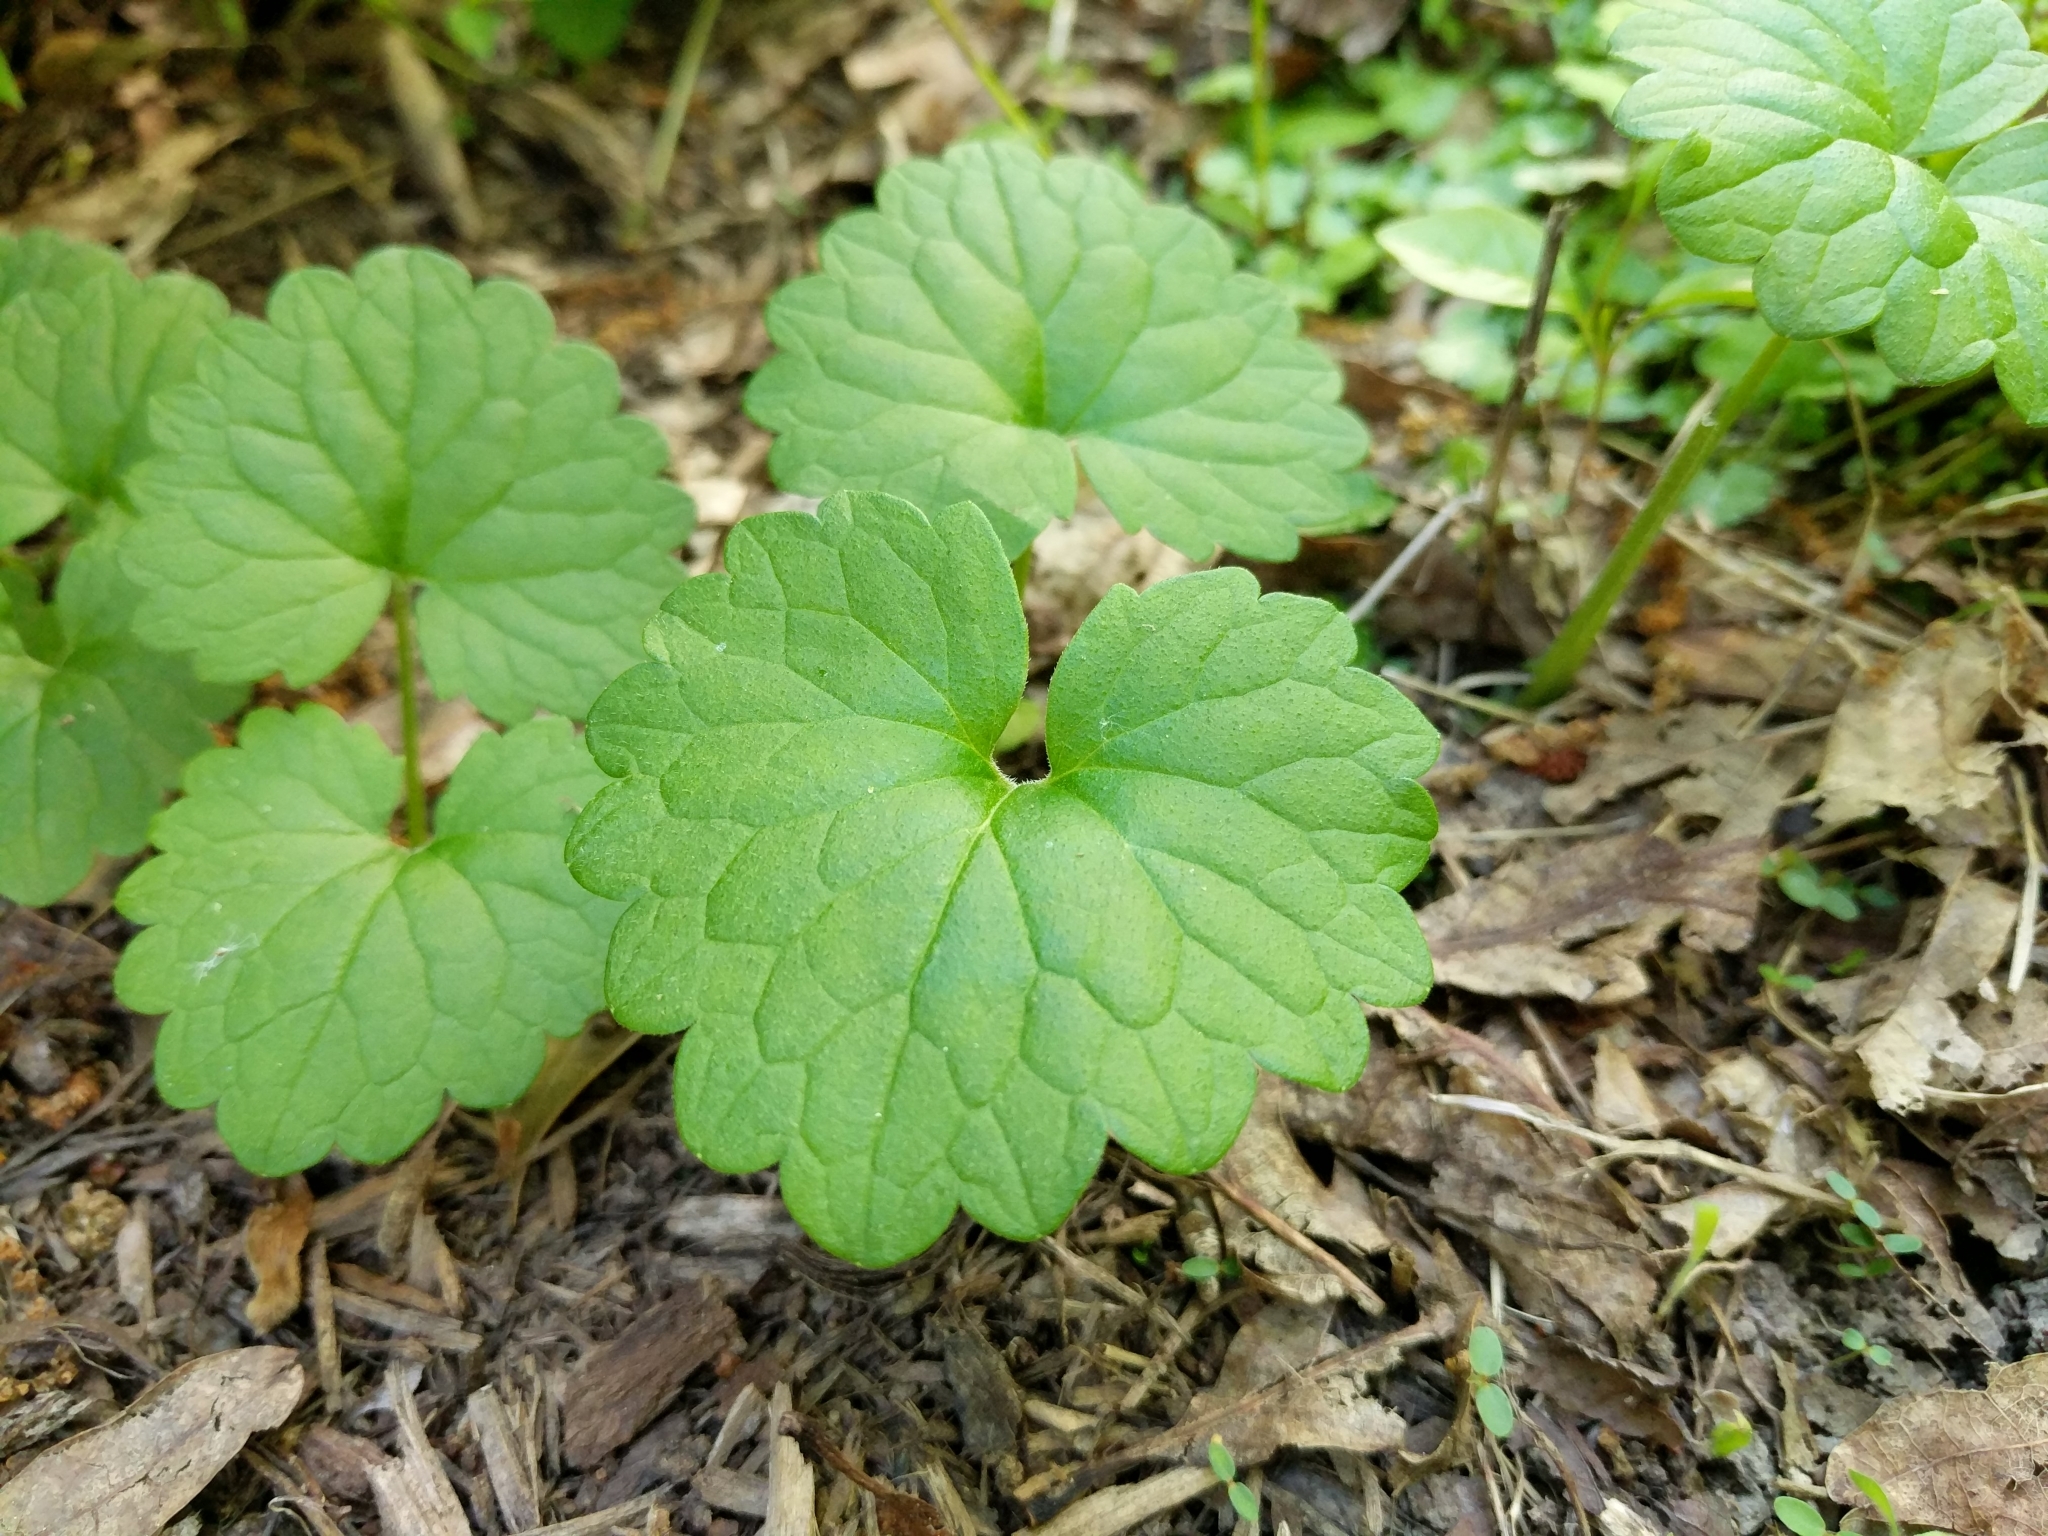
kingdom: Plantae
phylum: Tracheophyta
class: Magnoliopsida
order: Lamiales
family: Lamiaceae
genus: Glechoma
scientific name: Glechoma hederacea
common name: Ground ivy
